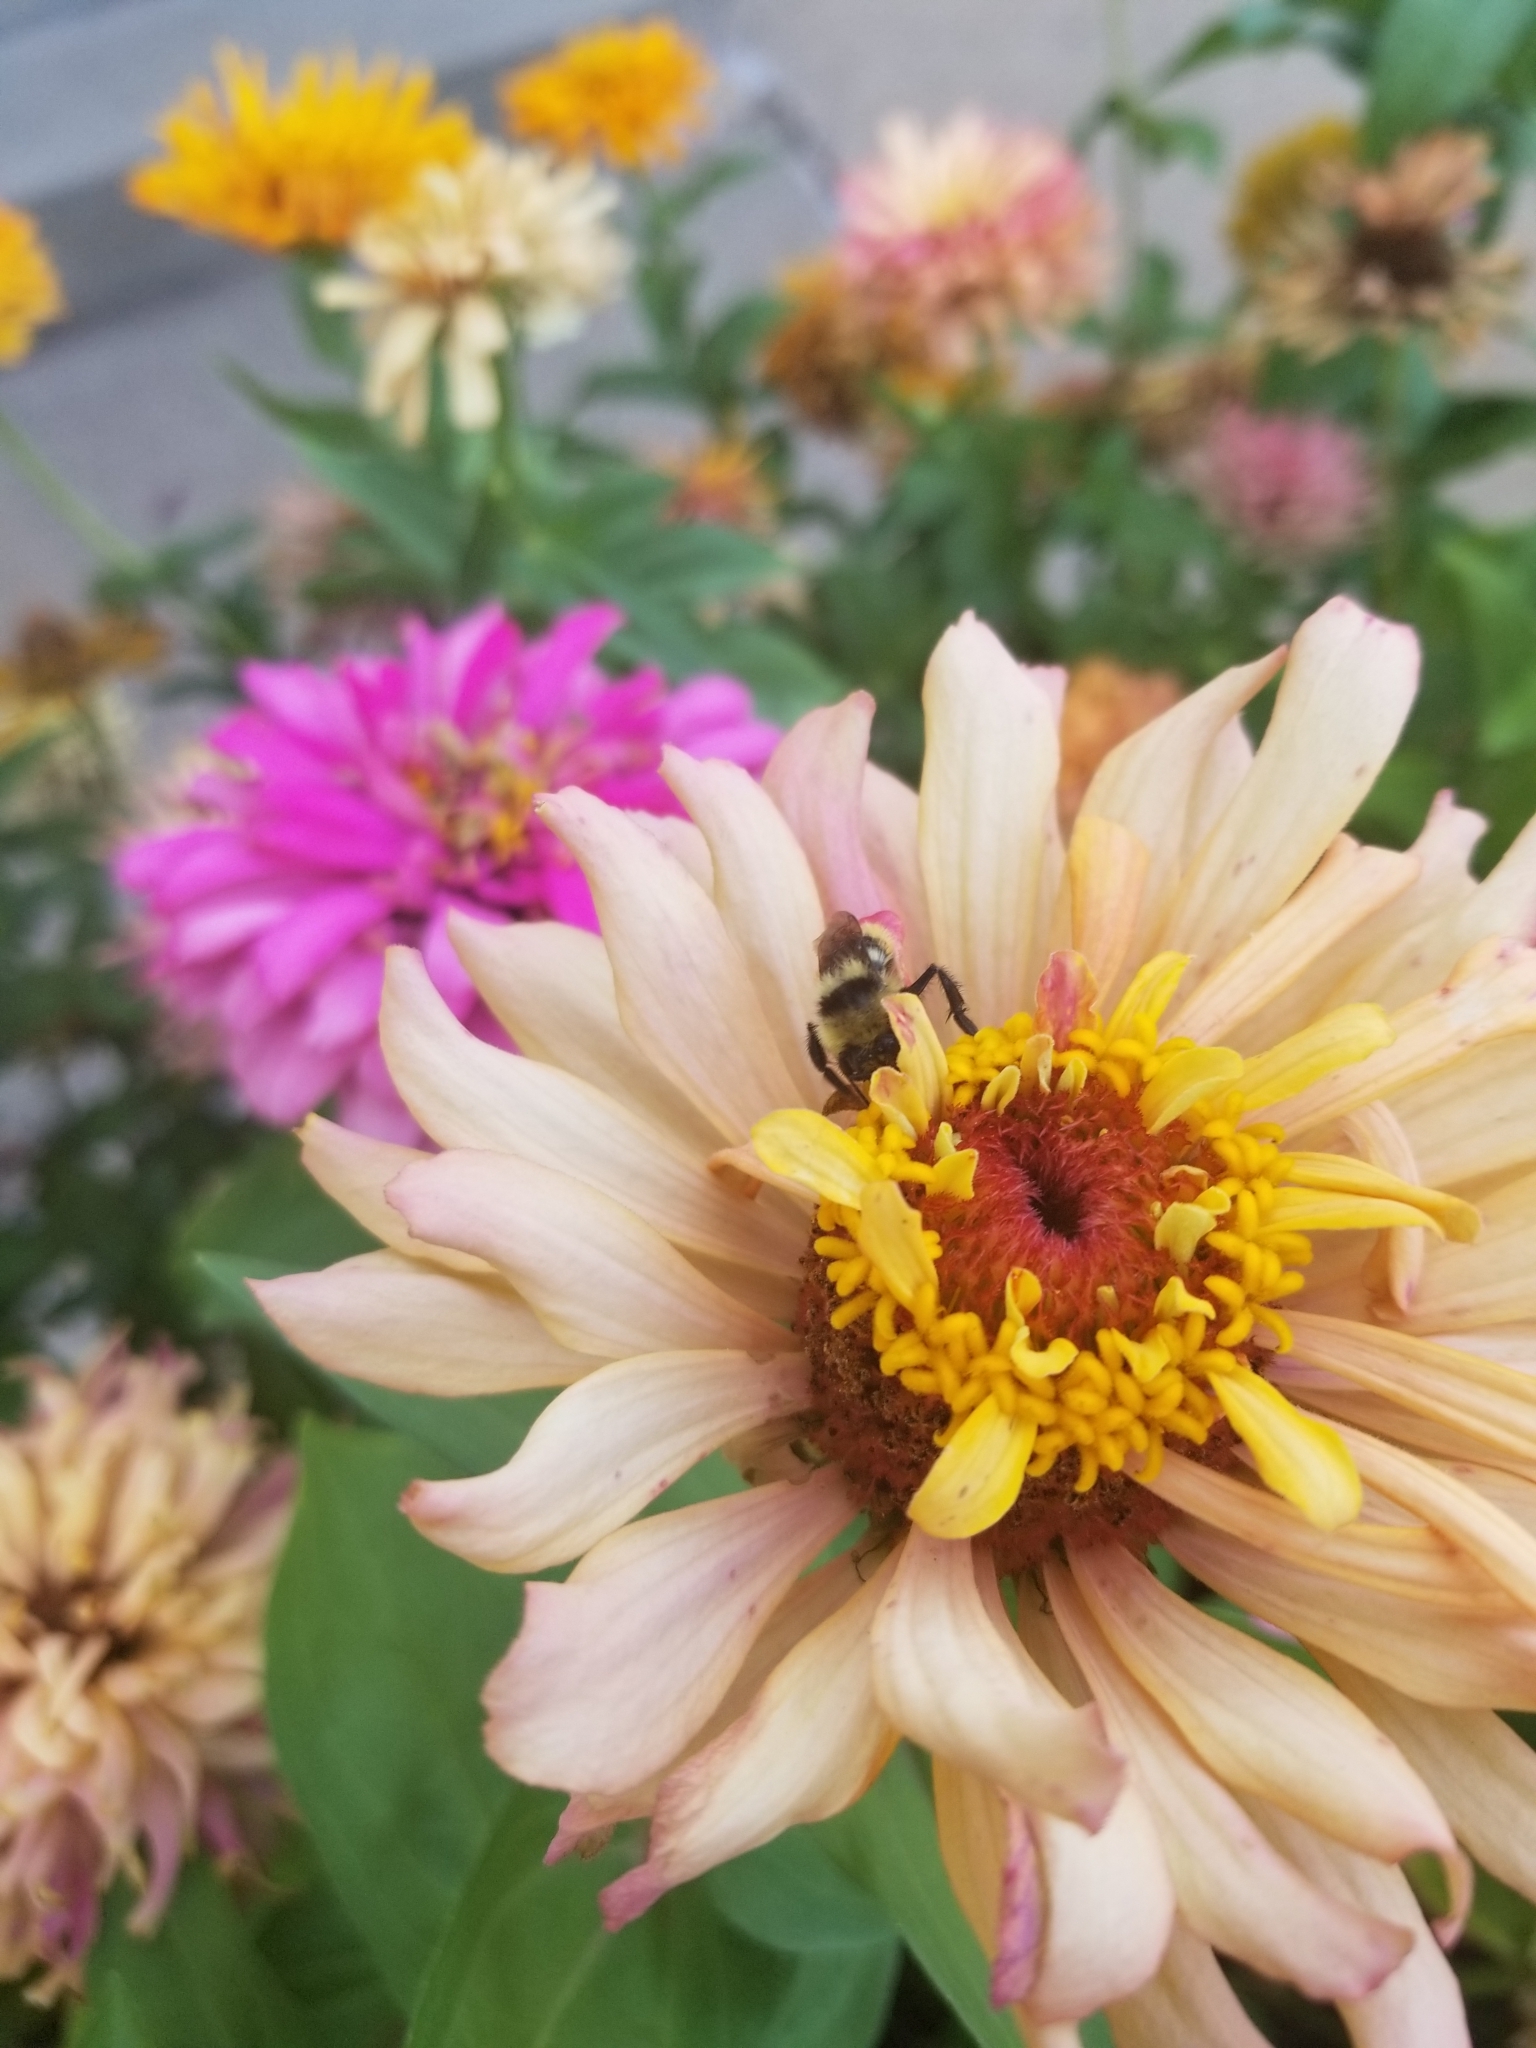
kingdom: Animalia
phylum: Arthropoda
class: Insecta
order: Hymenoptera
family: Apidae
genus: Pyrobombus
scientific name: Pyrobombus
